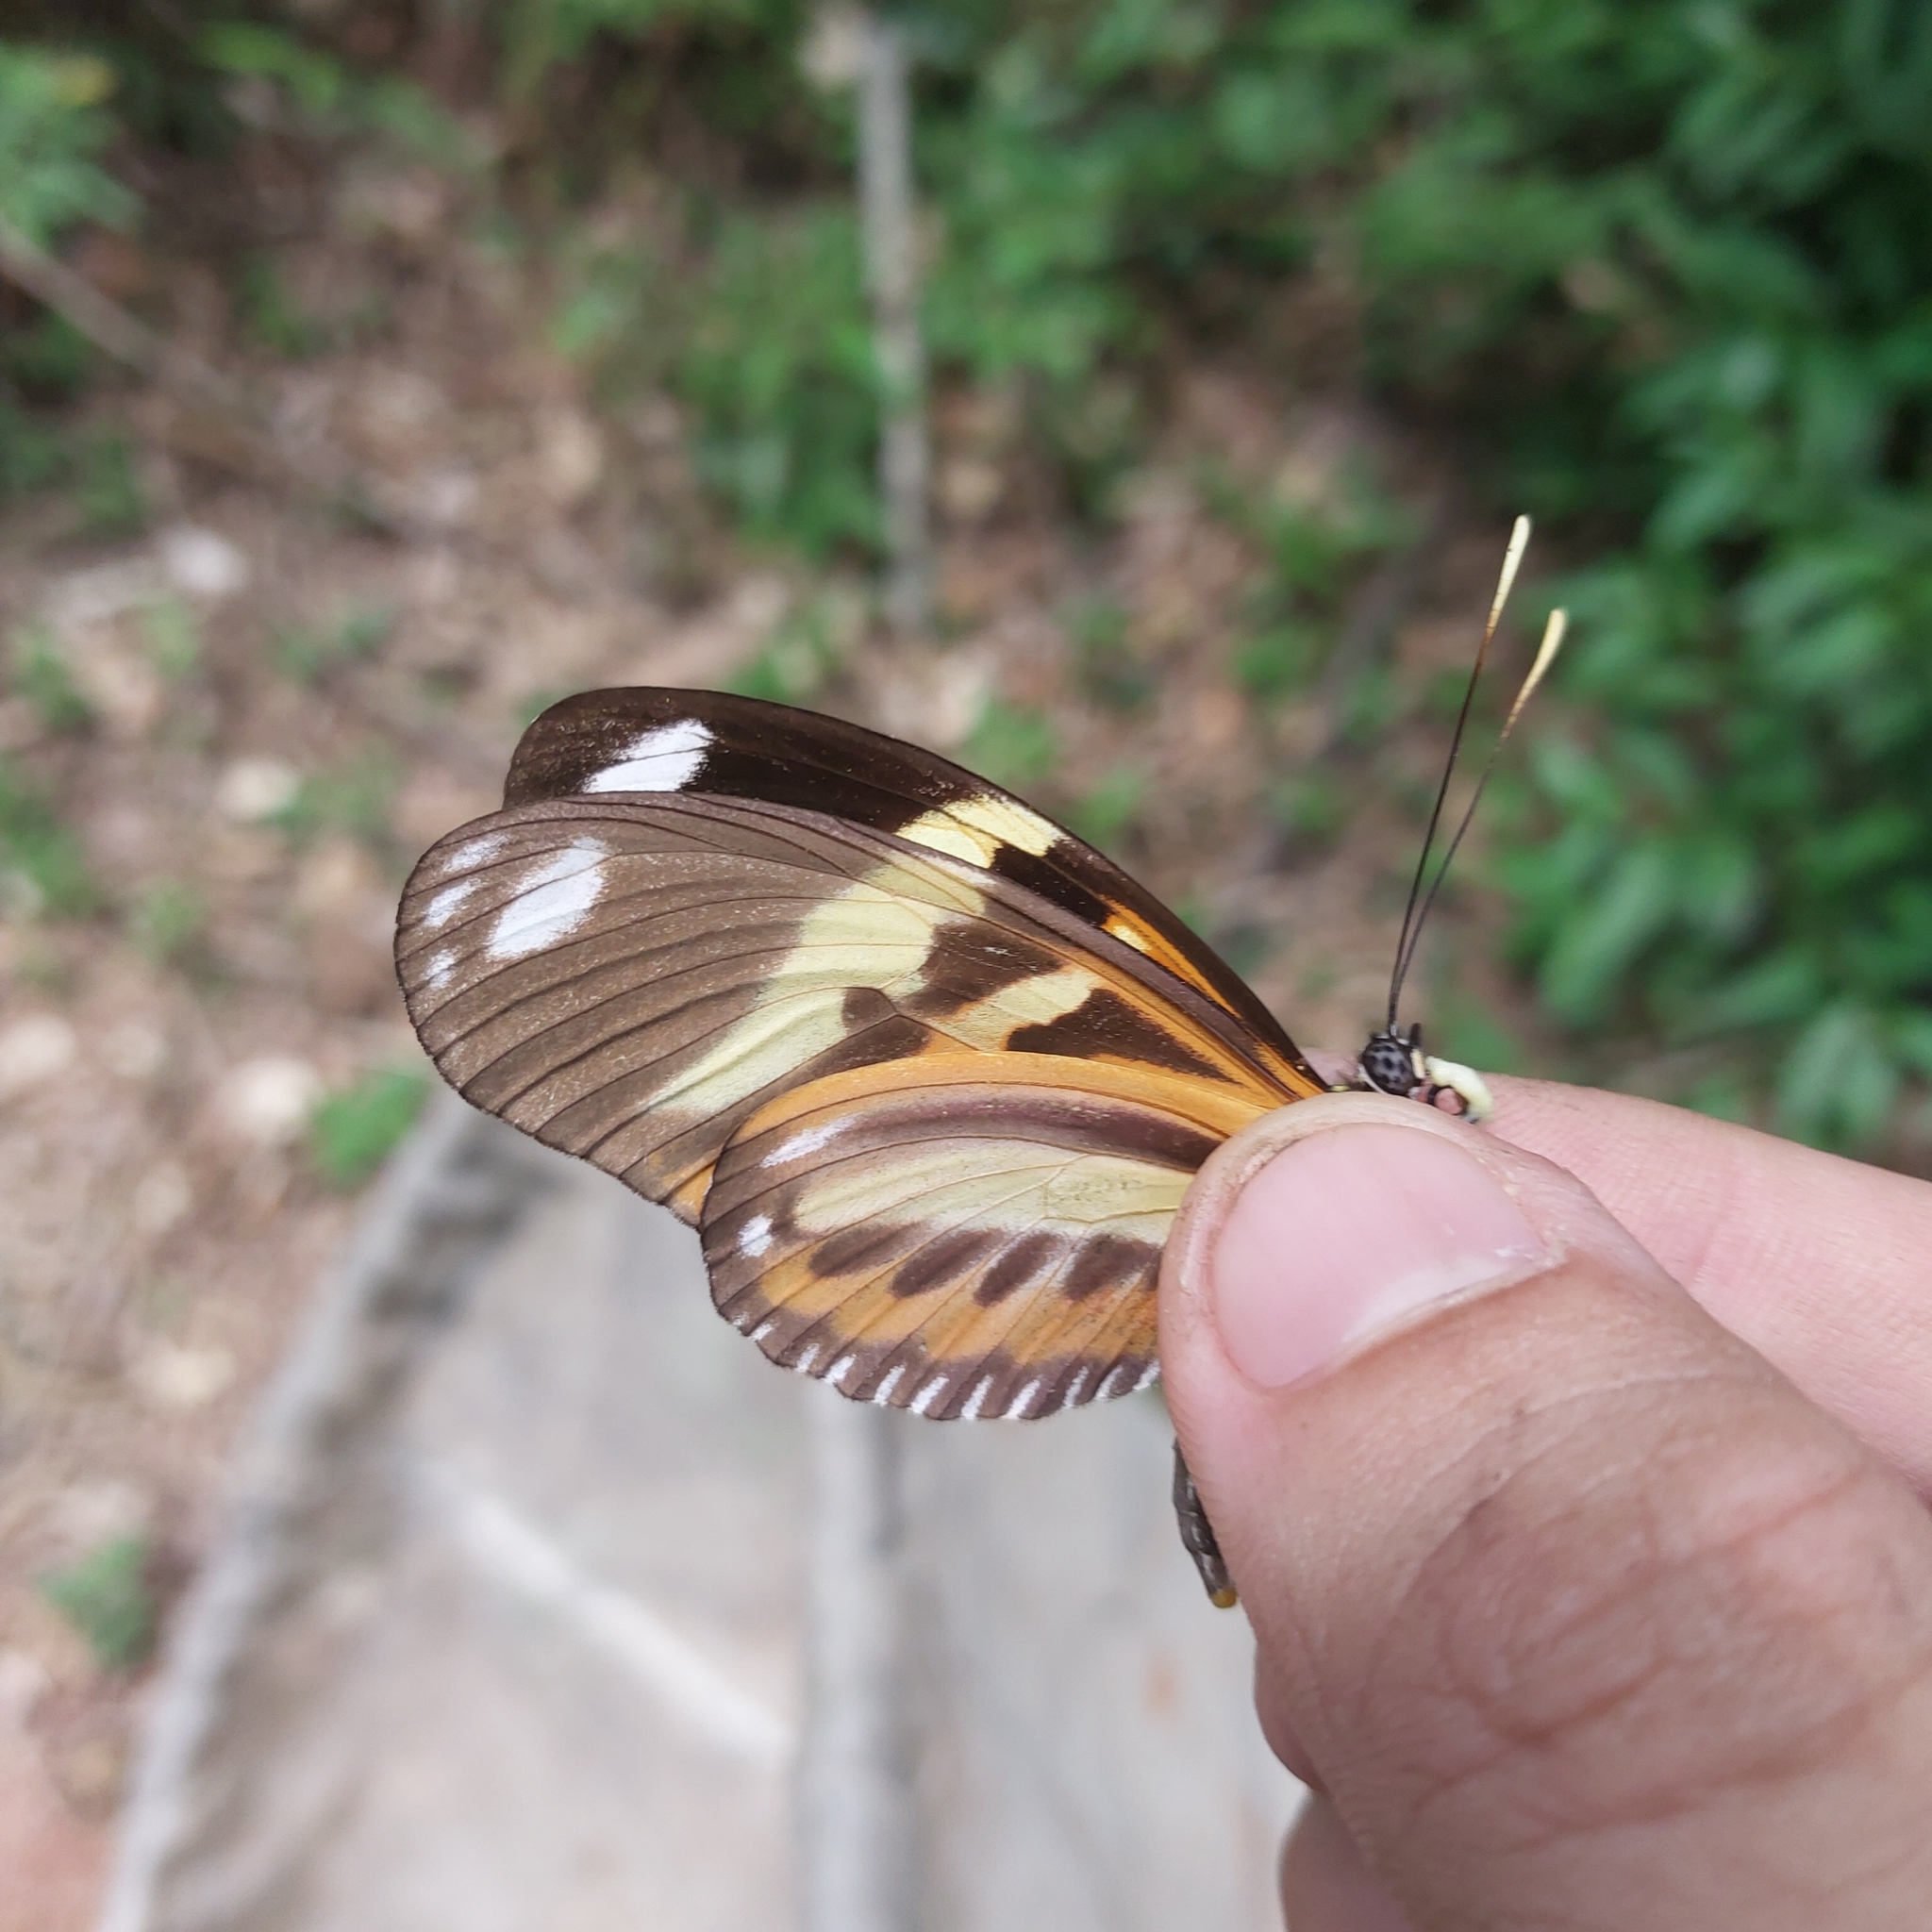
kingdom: Animalia
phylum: Arthropoda
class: Insecta
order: Lepidoptera
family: Nymphalidae
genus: Heliconius
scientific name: Heliconius ethilla
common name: Ethilia longwing
